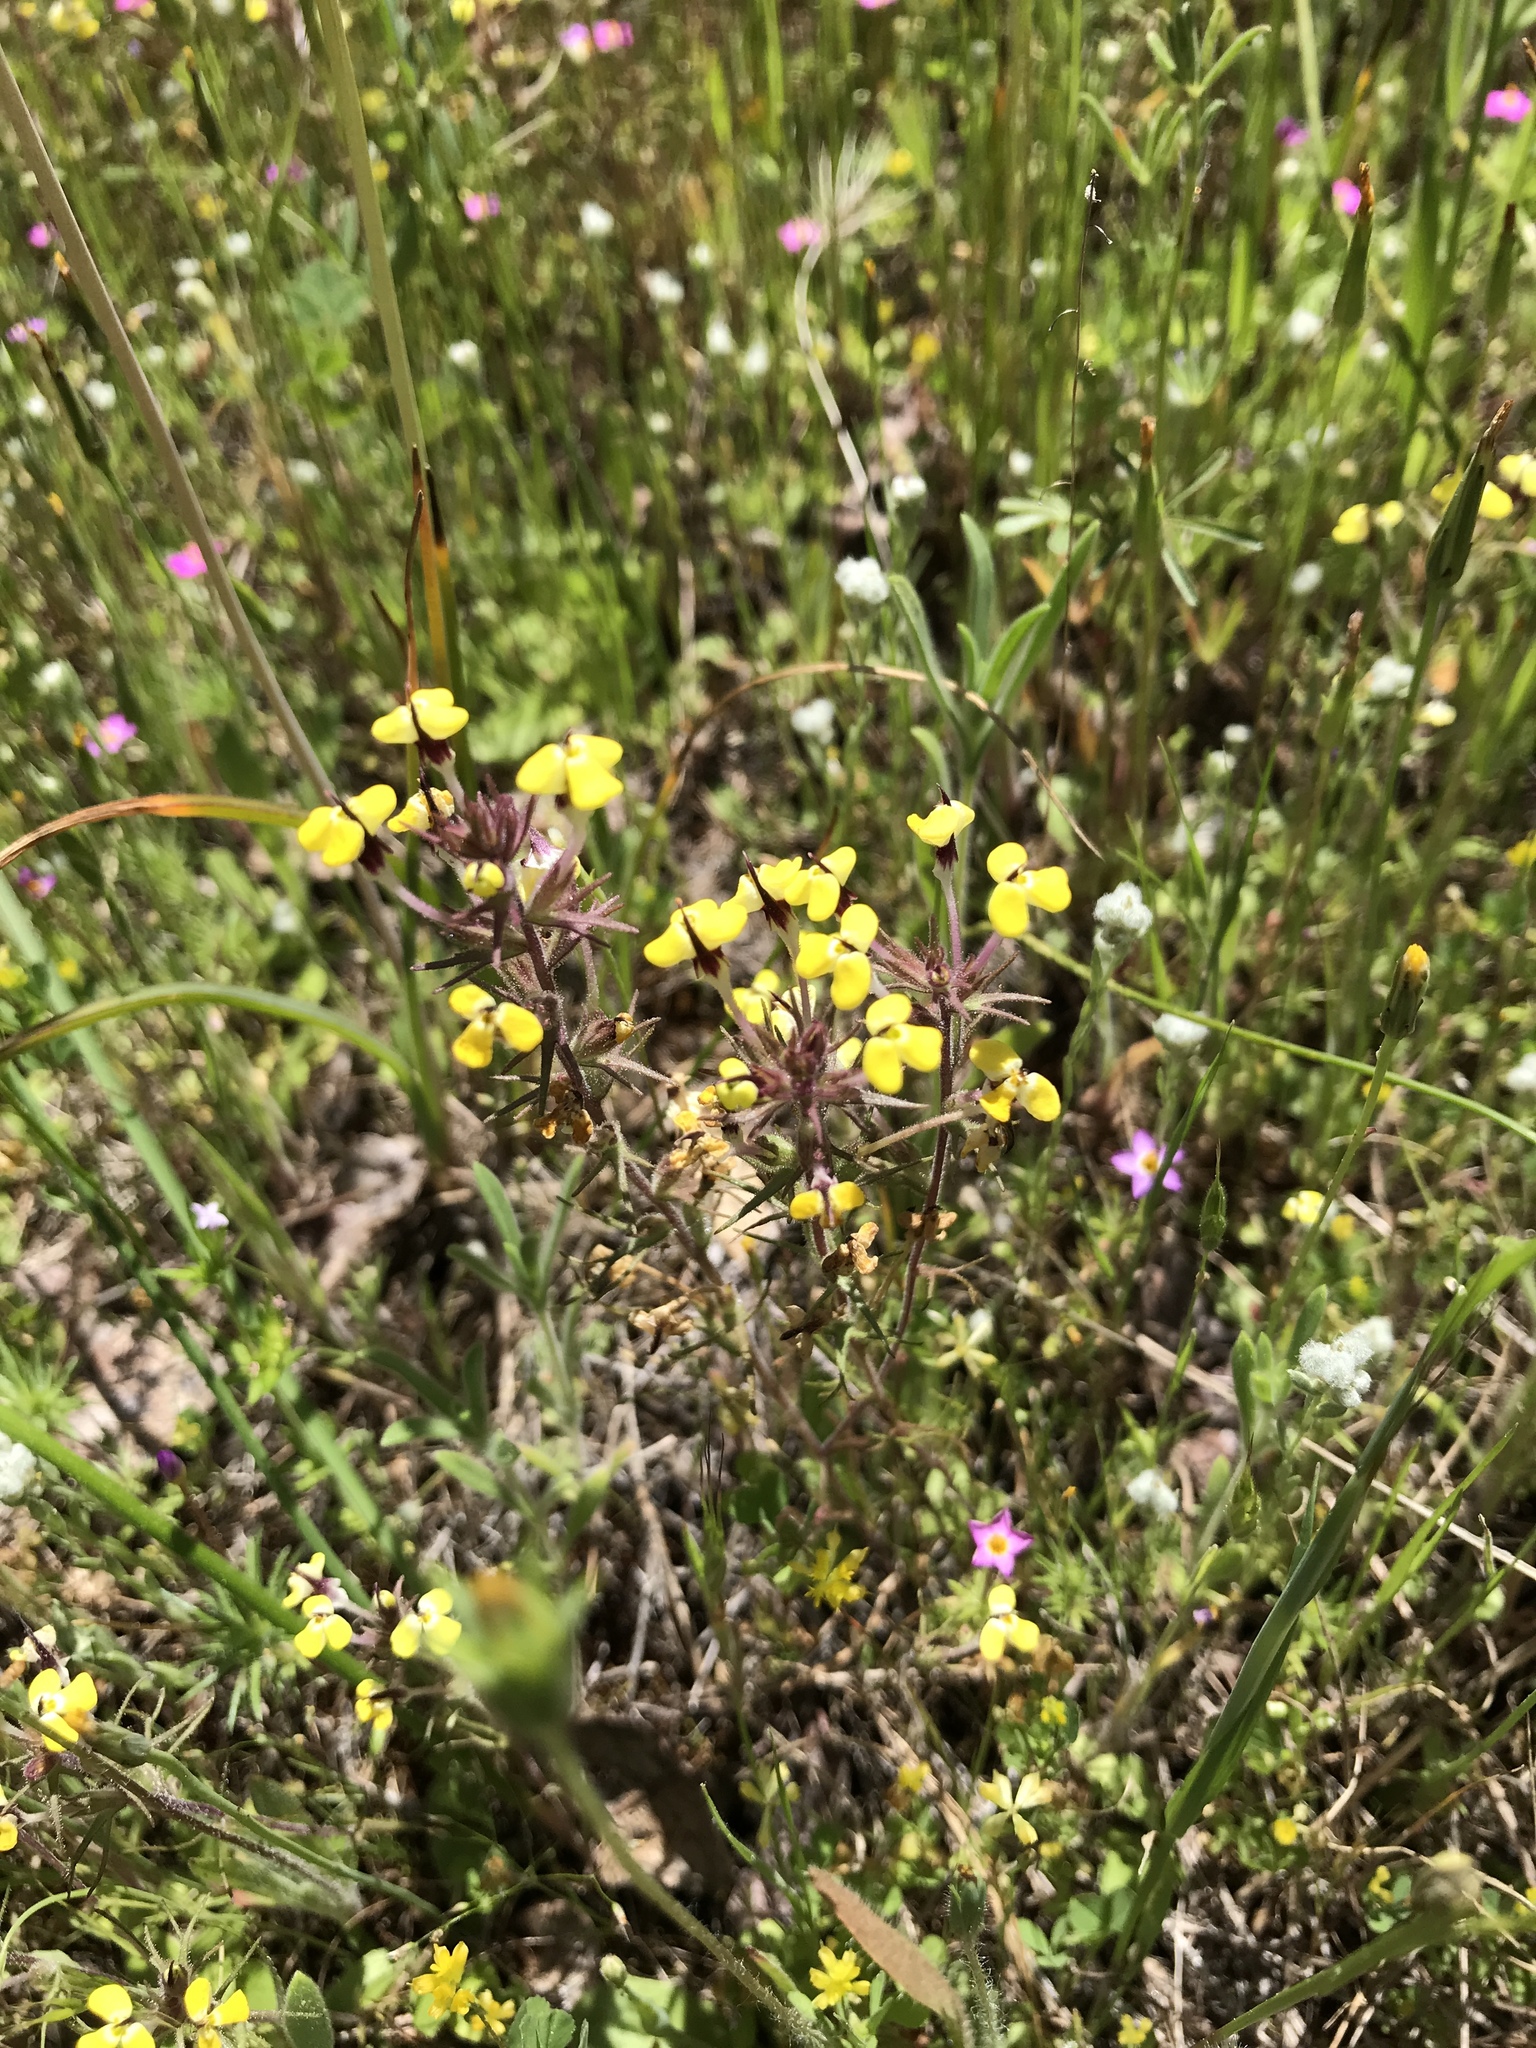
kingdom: Plantae
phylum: Tracheophyta
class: Magnoliopsida
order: Lamiales
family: Orobanchaceae
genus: Triphysaria
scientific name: Triphysaria eriantha
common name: Johnny-tuck
